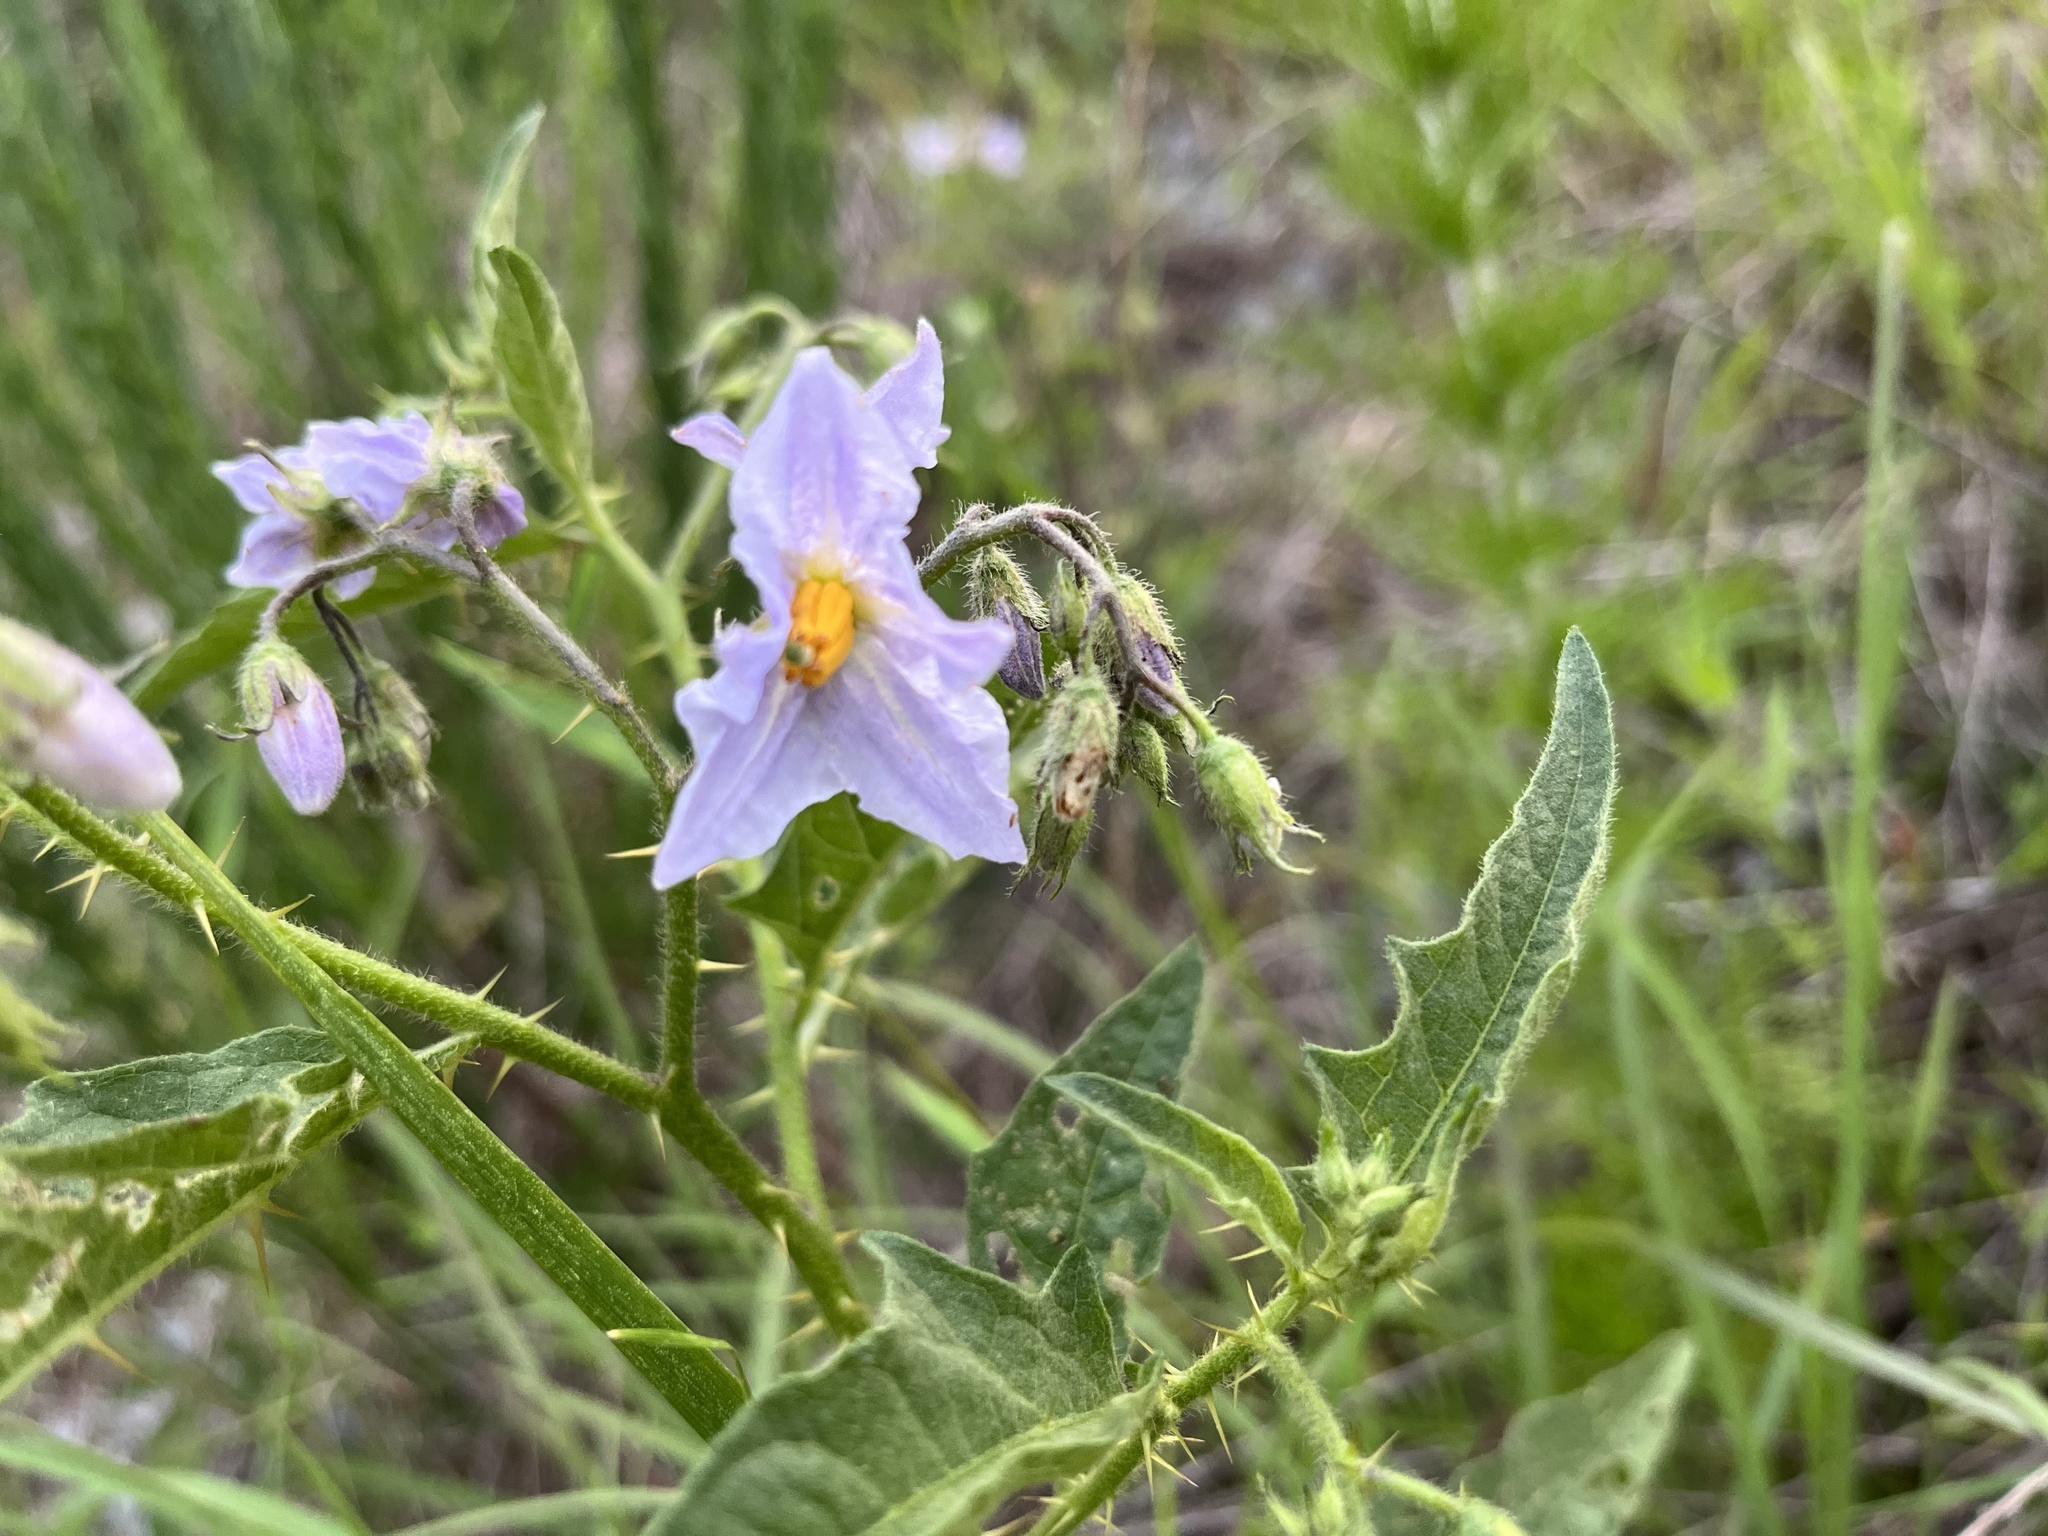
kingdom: Plantae
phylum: Tracheophyta
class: Magnoliopsida
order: Solanales
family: Solanaceae
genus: Solanum
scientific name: Solanum carolinense
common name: Horse-nettle
